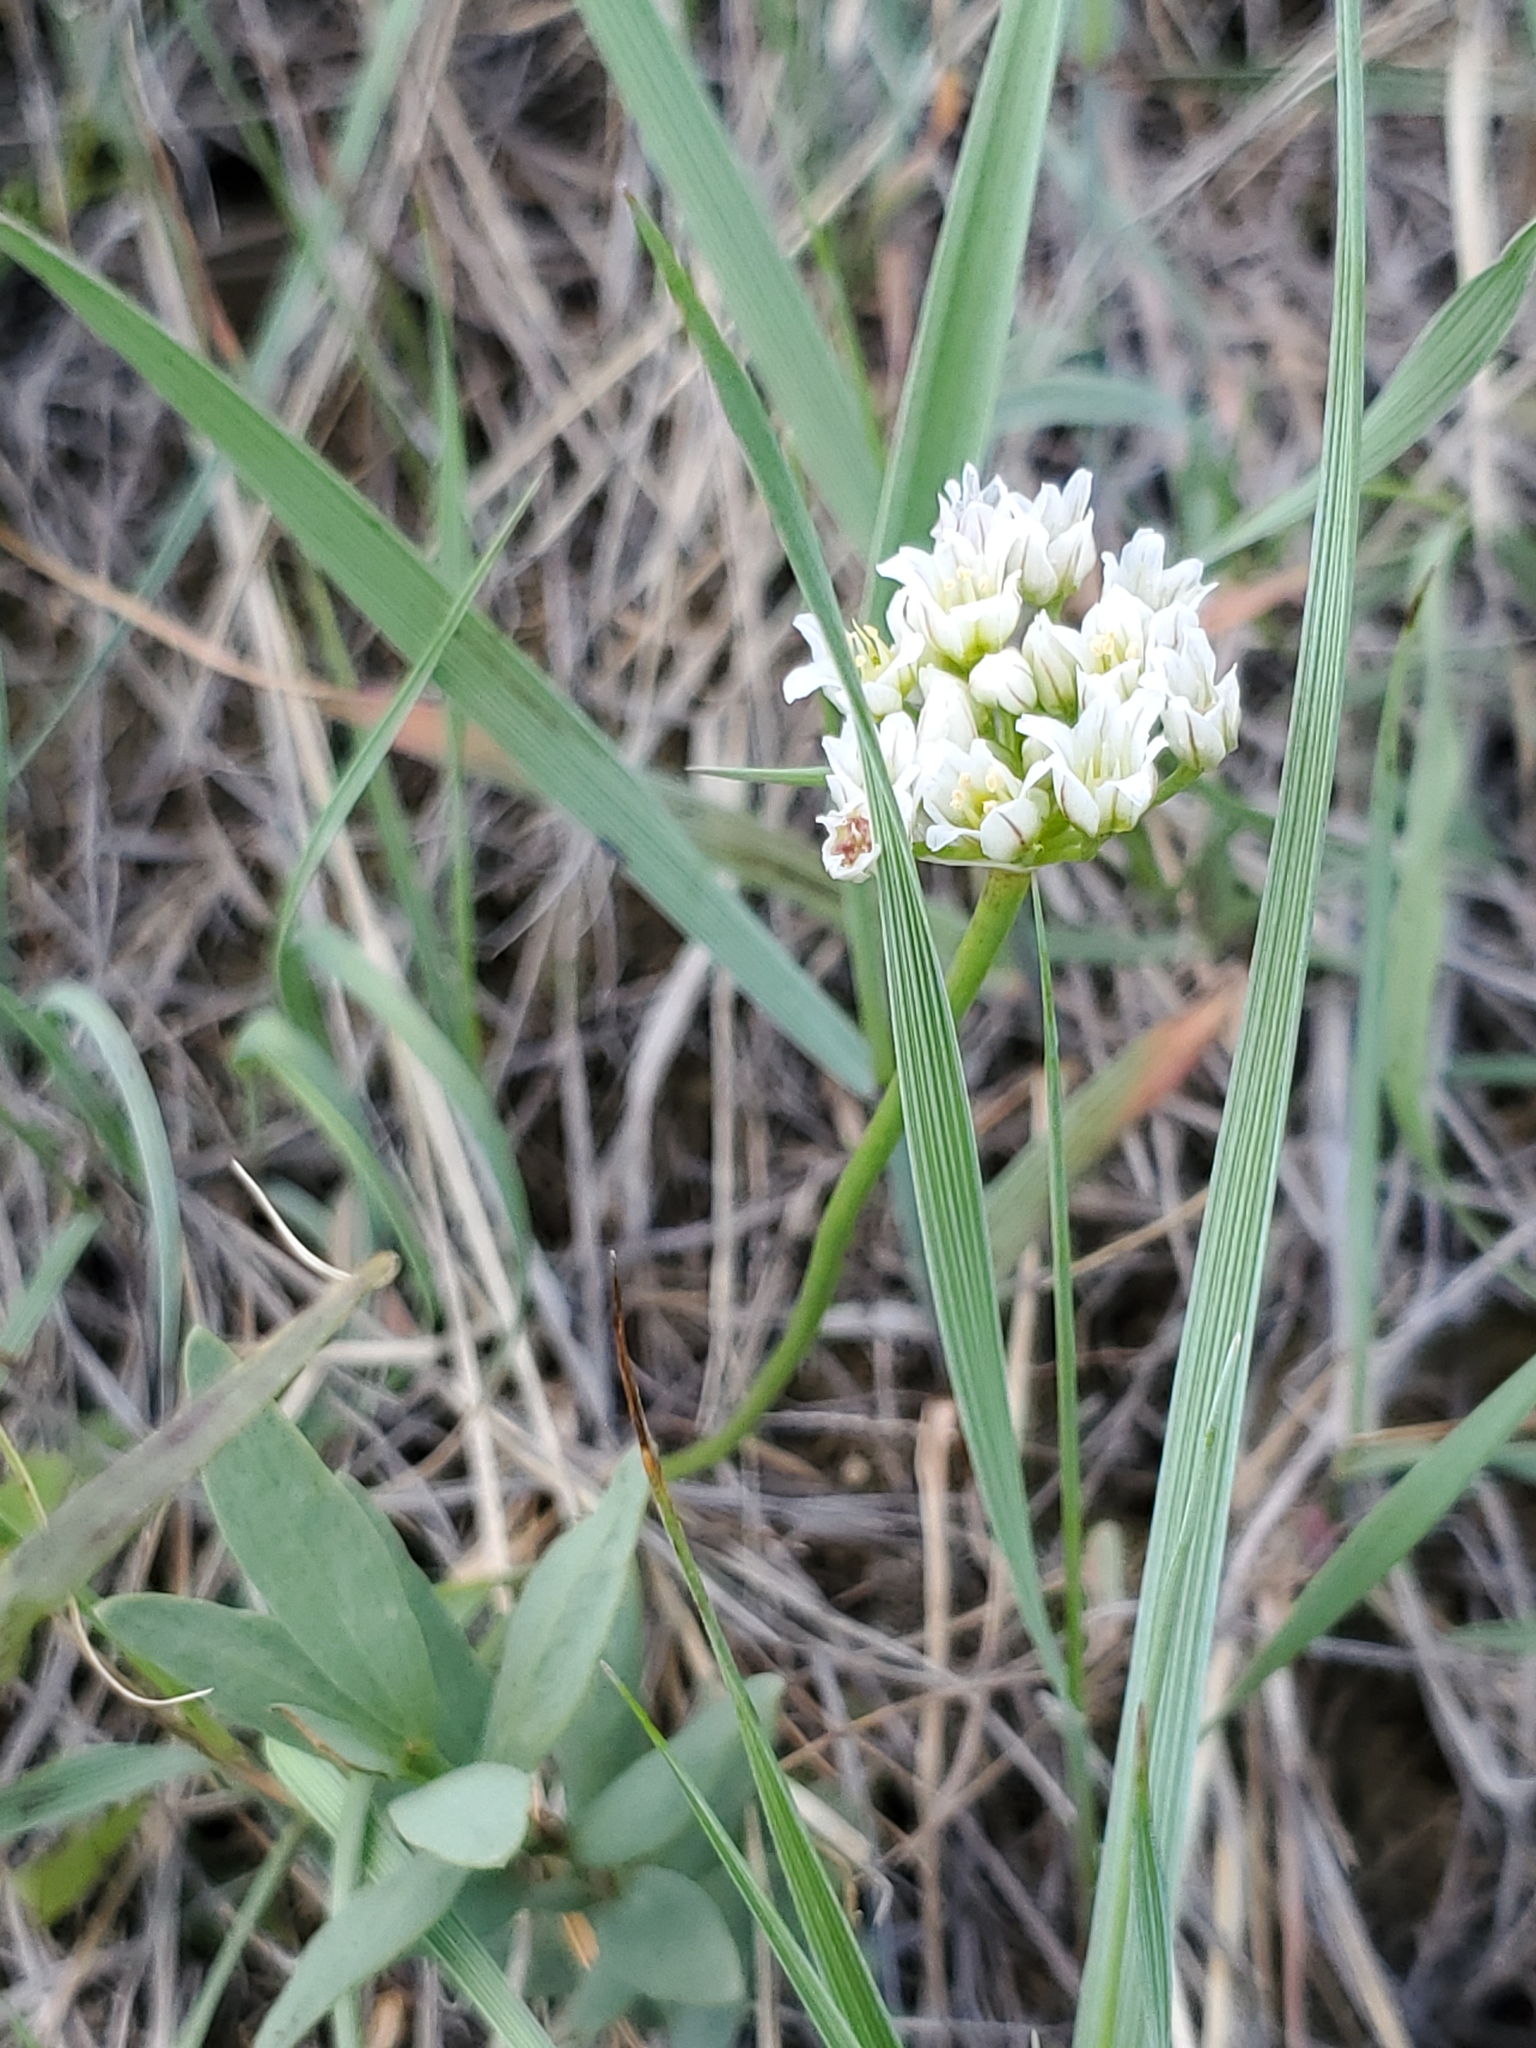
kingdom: Plantae
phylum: Tracheophyta
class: Liliopsida
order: Asparagales
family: Amaryllidaceae
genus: Allium
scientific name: Allium textile
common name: Prairie onion
